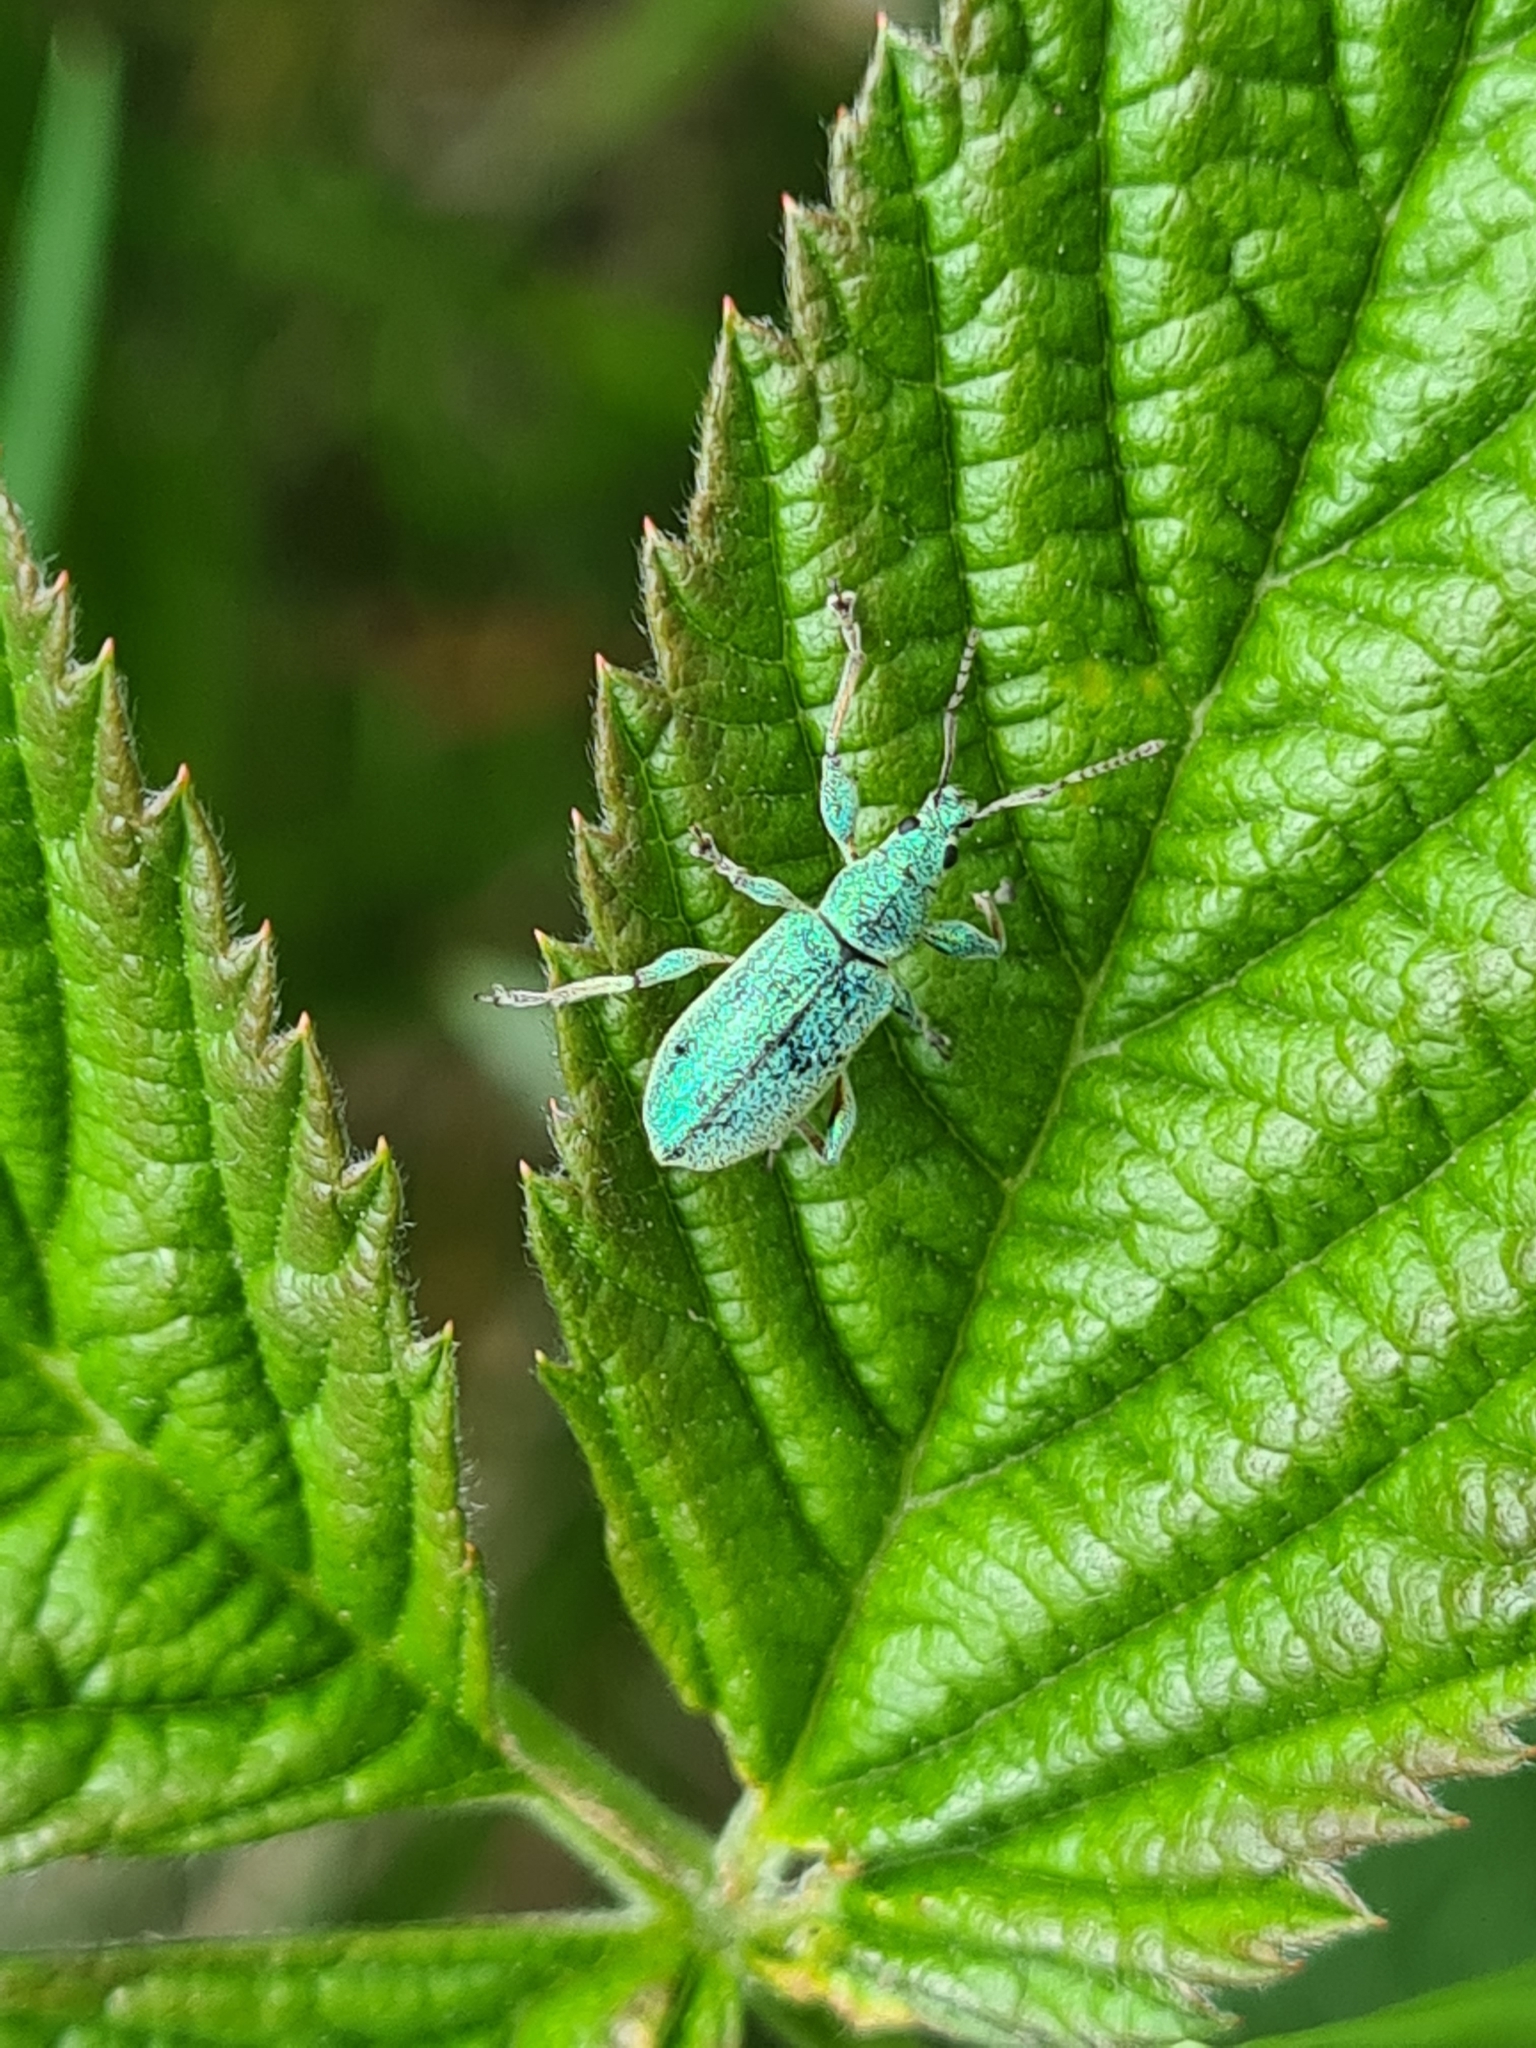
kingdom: Animalia
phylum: Arthropoda
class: Insecta
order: Coleoptera
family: Curculionidae
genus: Phyllobius
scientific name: Phyllobius pomaceus
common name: Green nettle weevil
